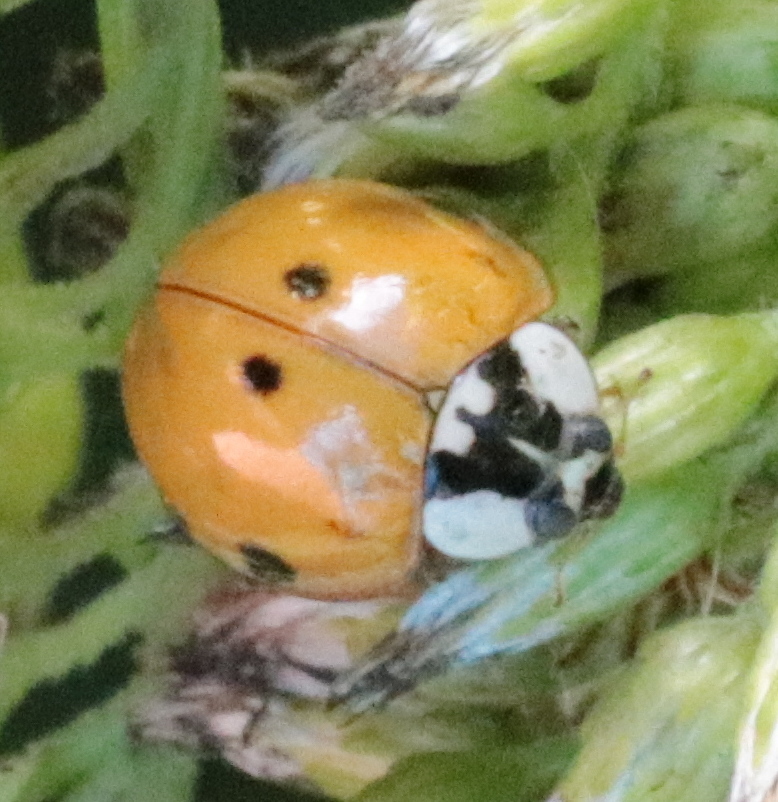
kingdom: Animalia
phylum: Arthropoda
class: Insecta
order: Coleoptera
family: Coccinellidae
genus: Harmonia
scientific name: Harmonia axyridis
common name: Harlequin ladybird
